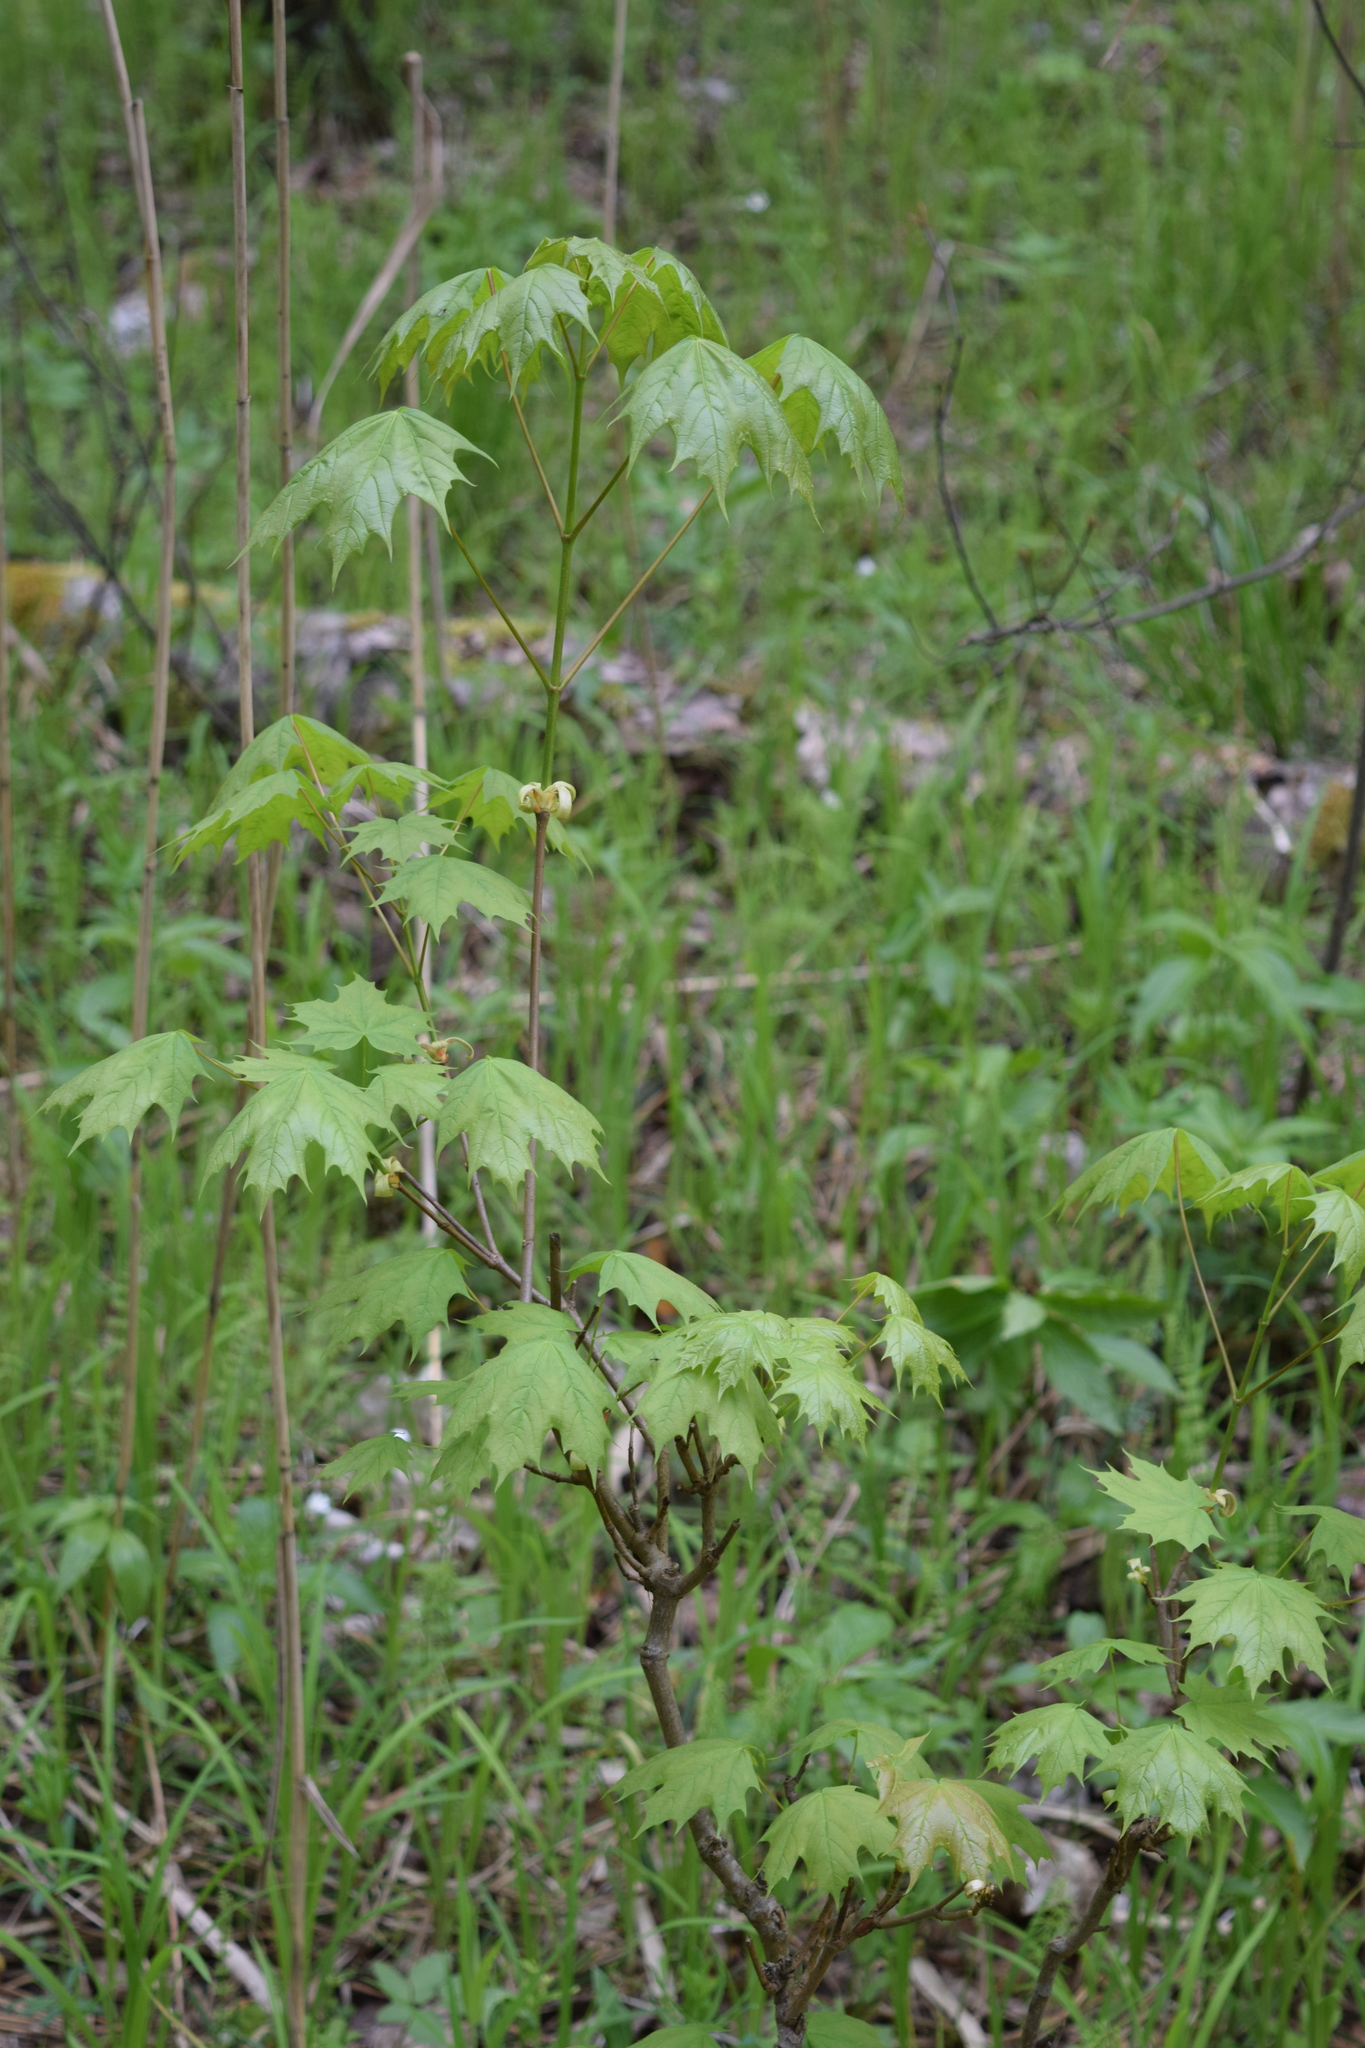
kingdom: Plantae
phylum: Tracheophyta
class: Magnoliopsida
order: Sapindales
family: Sapindaceae
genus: Acer
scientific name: Acer platanoides
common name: Norway maple
